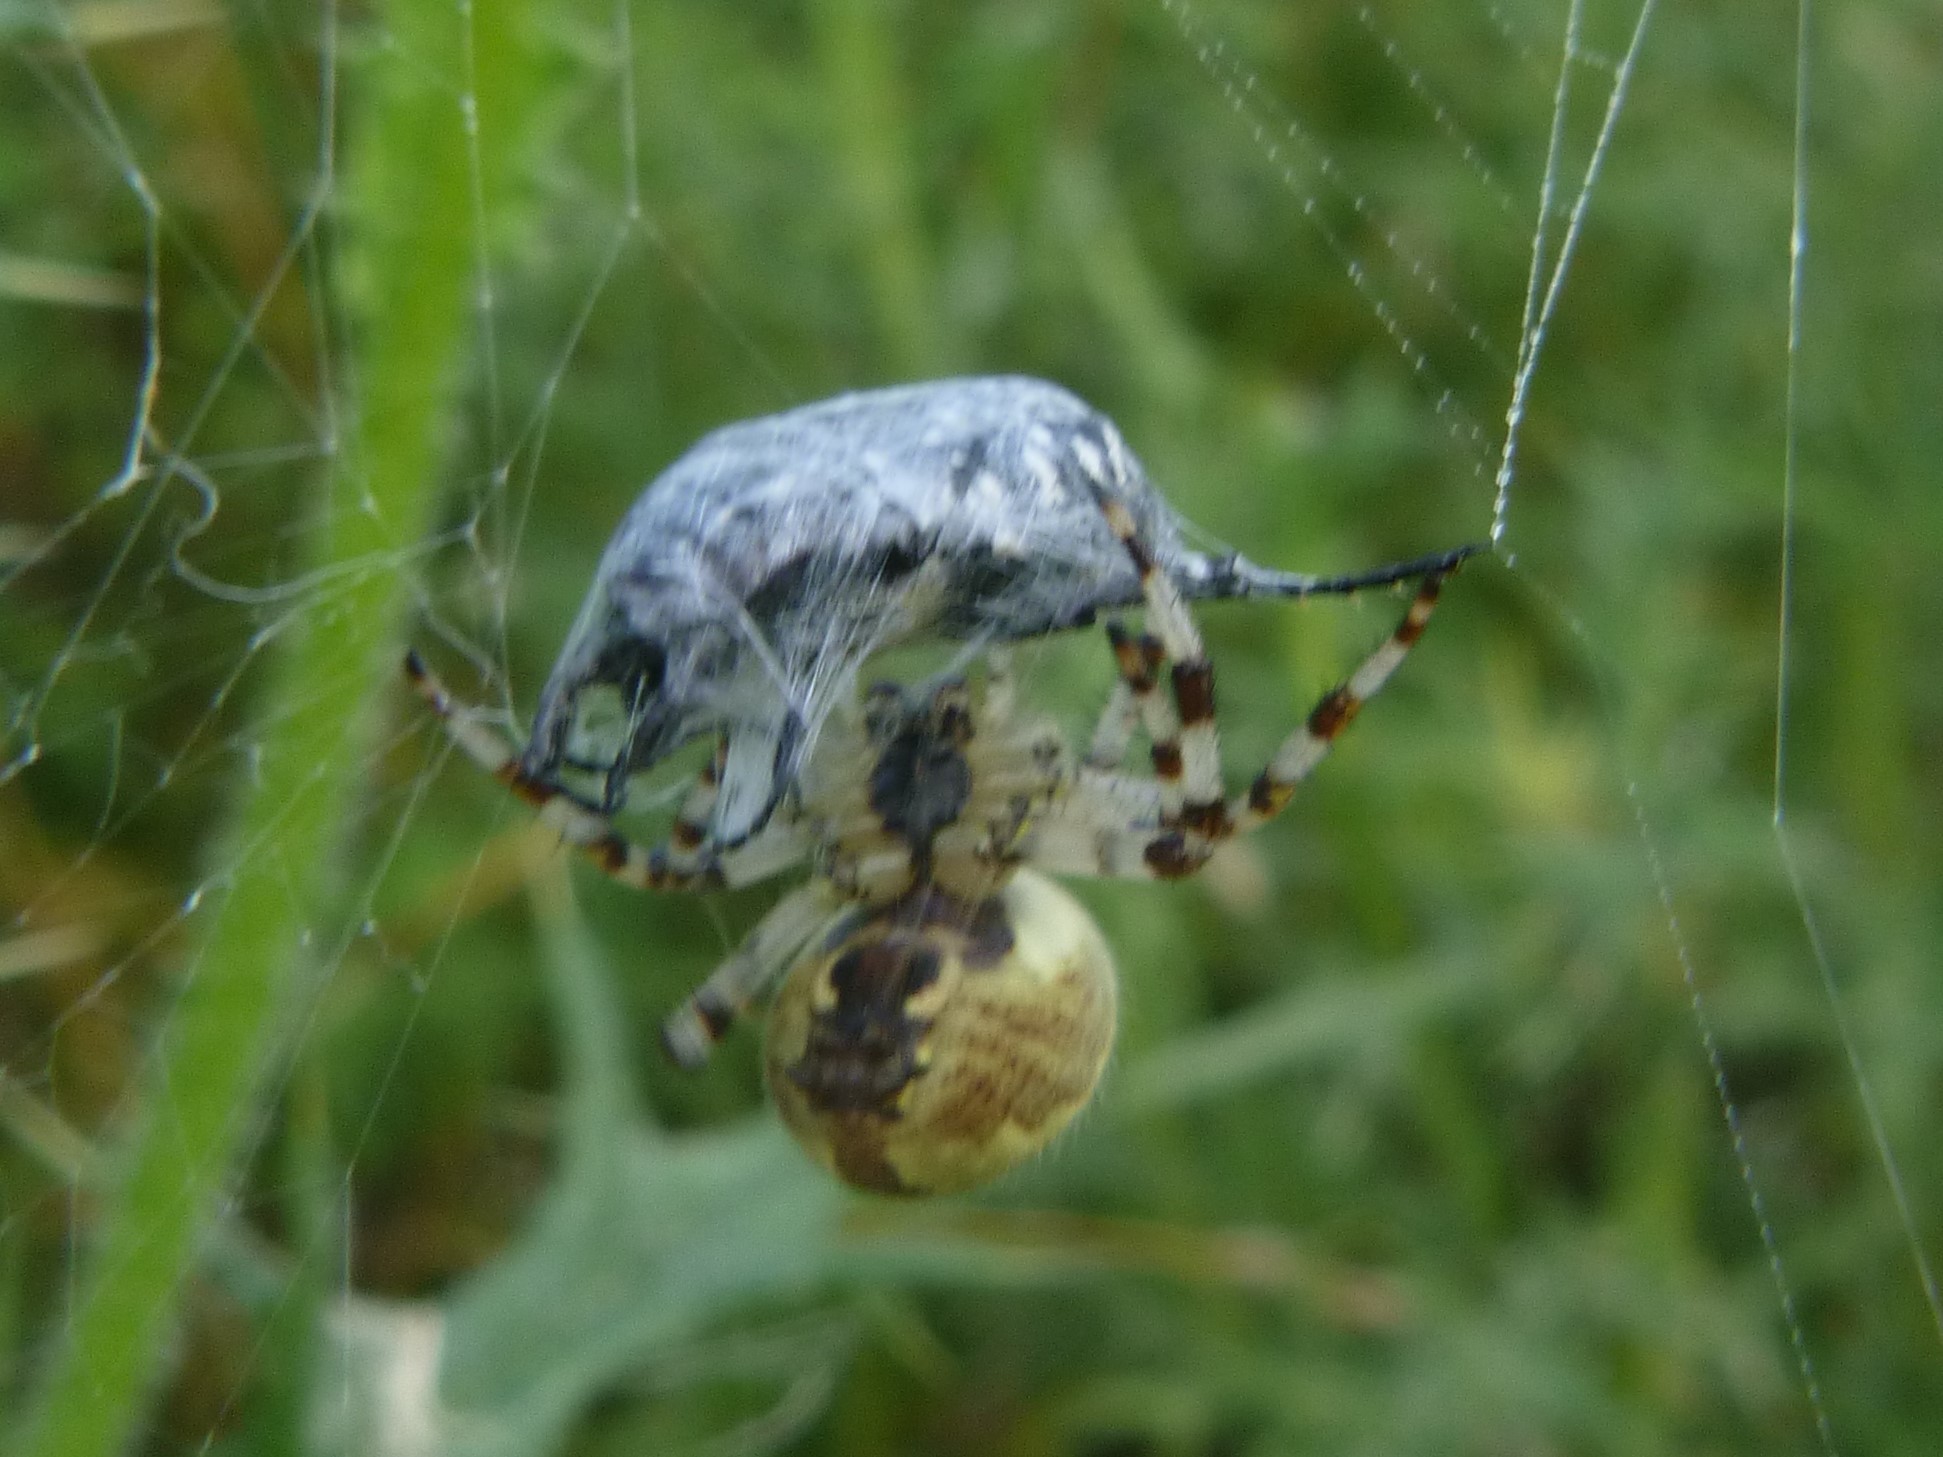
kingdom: Animalia
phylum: Arthropoda
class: Arachnida
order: Araneae
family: Araneidae
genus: Araneus
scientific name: Araneus quadratus
